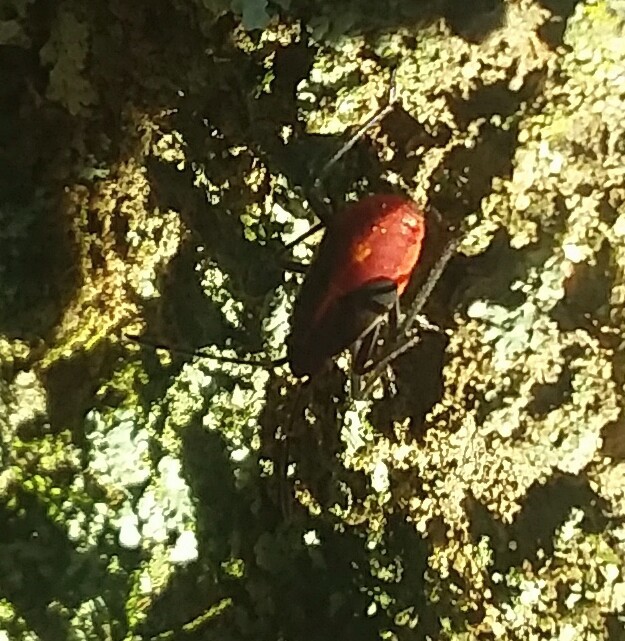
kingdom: Animalia
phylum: Arthropoda
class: Insecta
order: Hemiptera
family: Rhopalidae
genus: Boisea
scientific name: Boisea trivittata
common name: Boxelder bug
